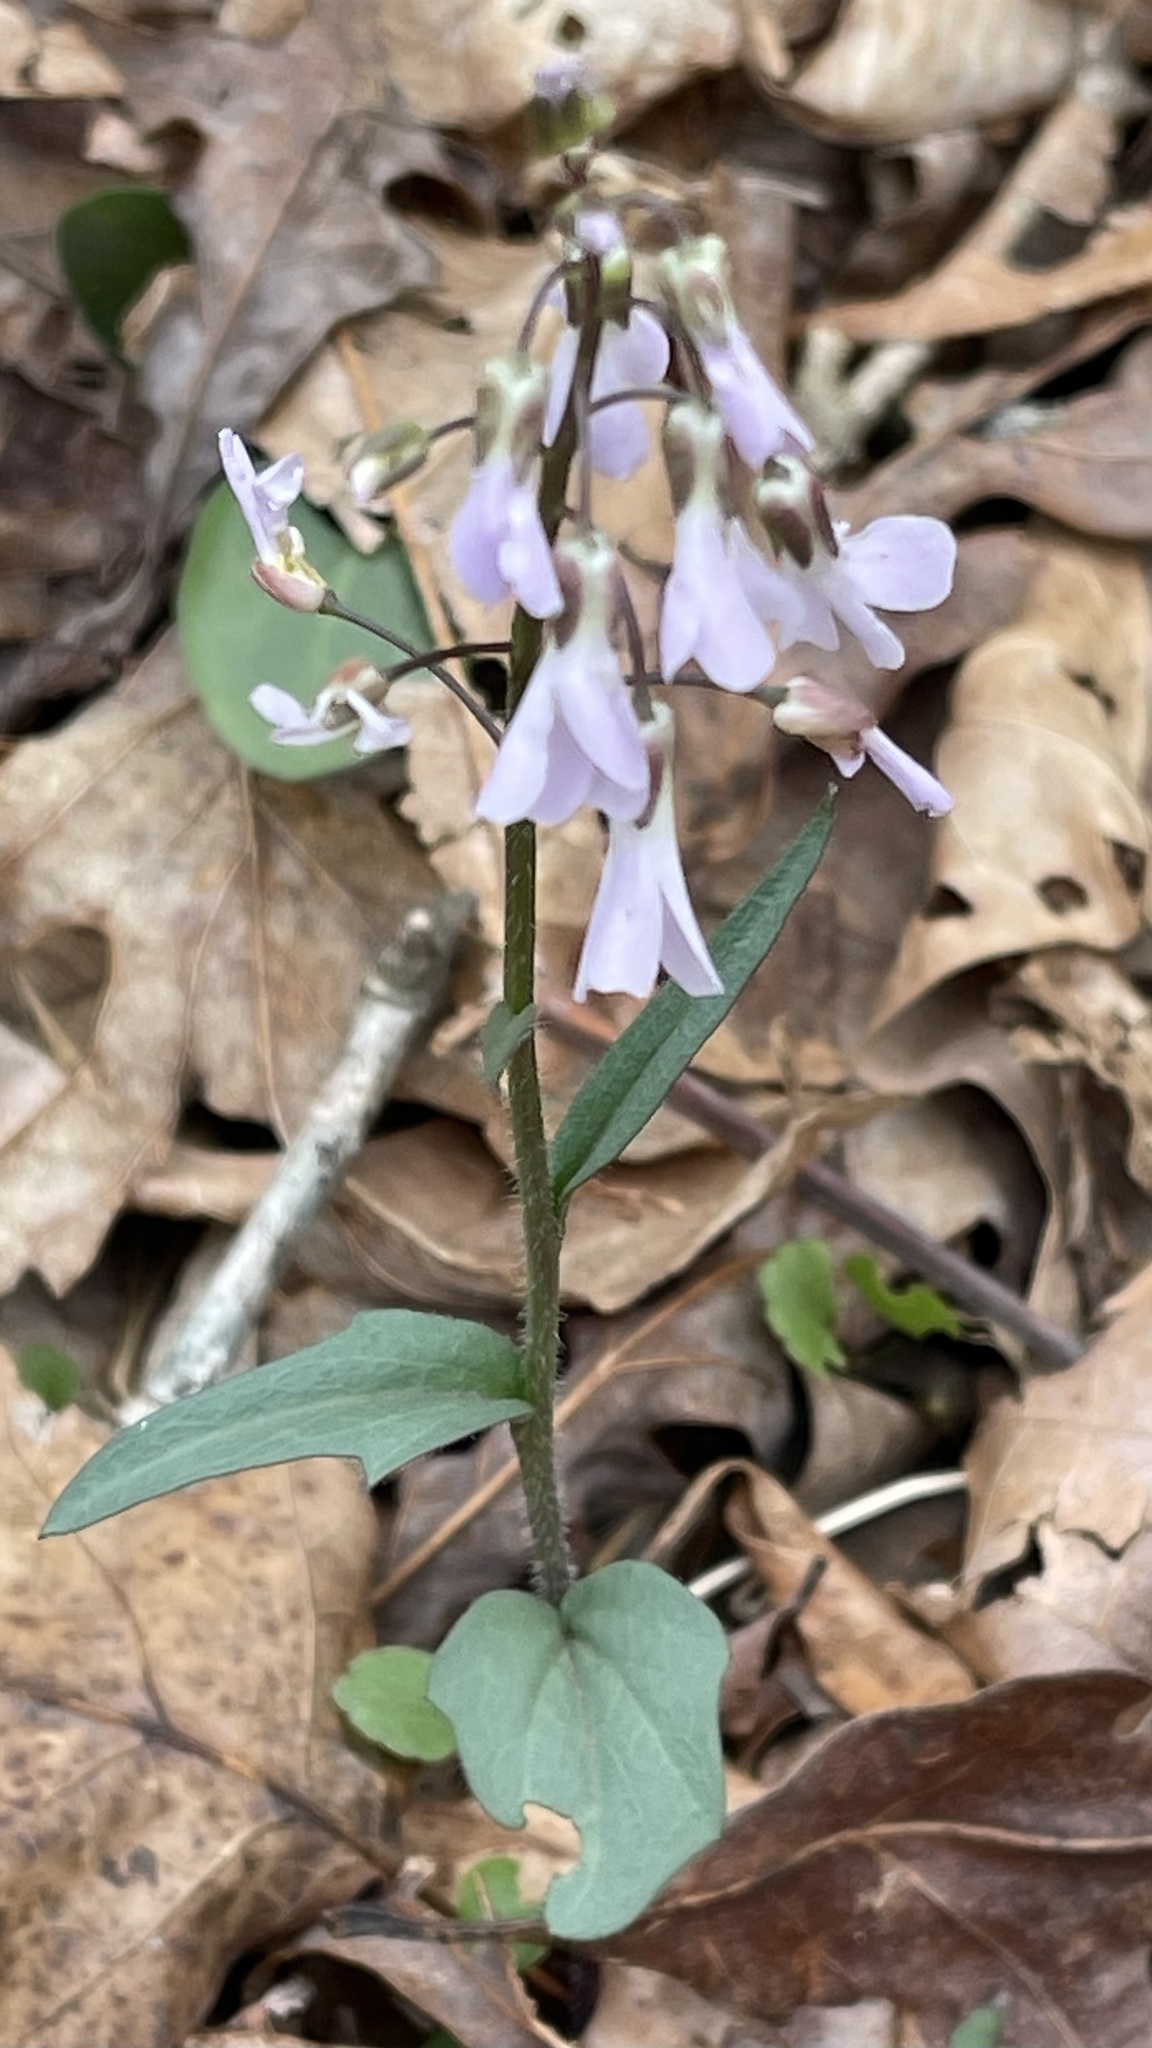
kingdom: Plantae
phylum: Tracheophyta
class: Magnoliopsida
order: Brassicales
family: Brassicaceae
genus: Cardamine
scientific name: Cardamine douglassii
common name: Purple cress
